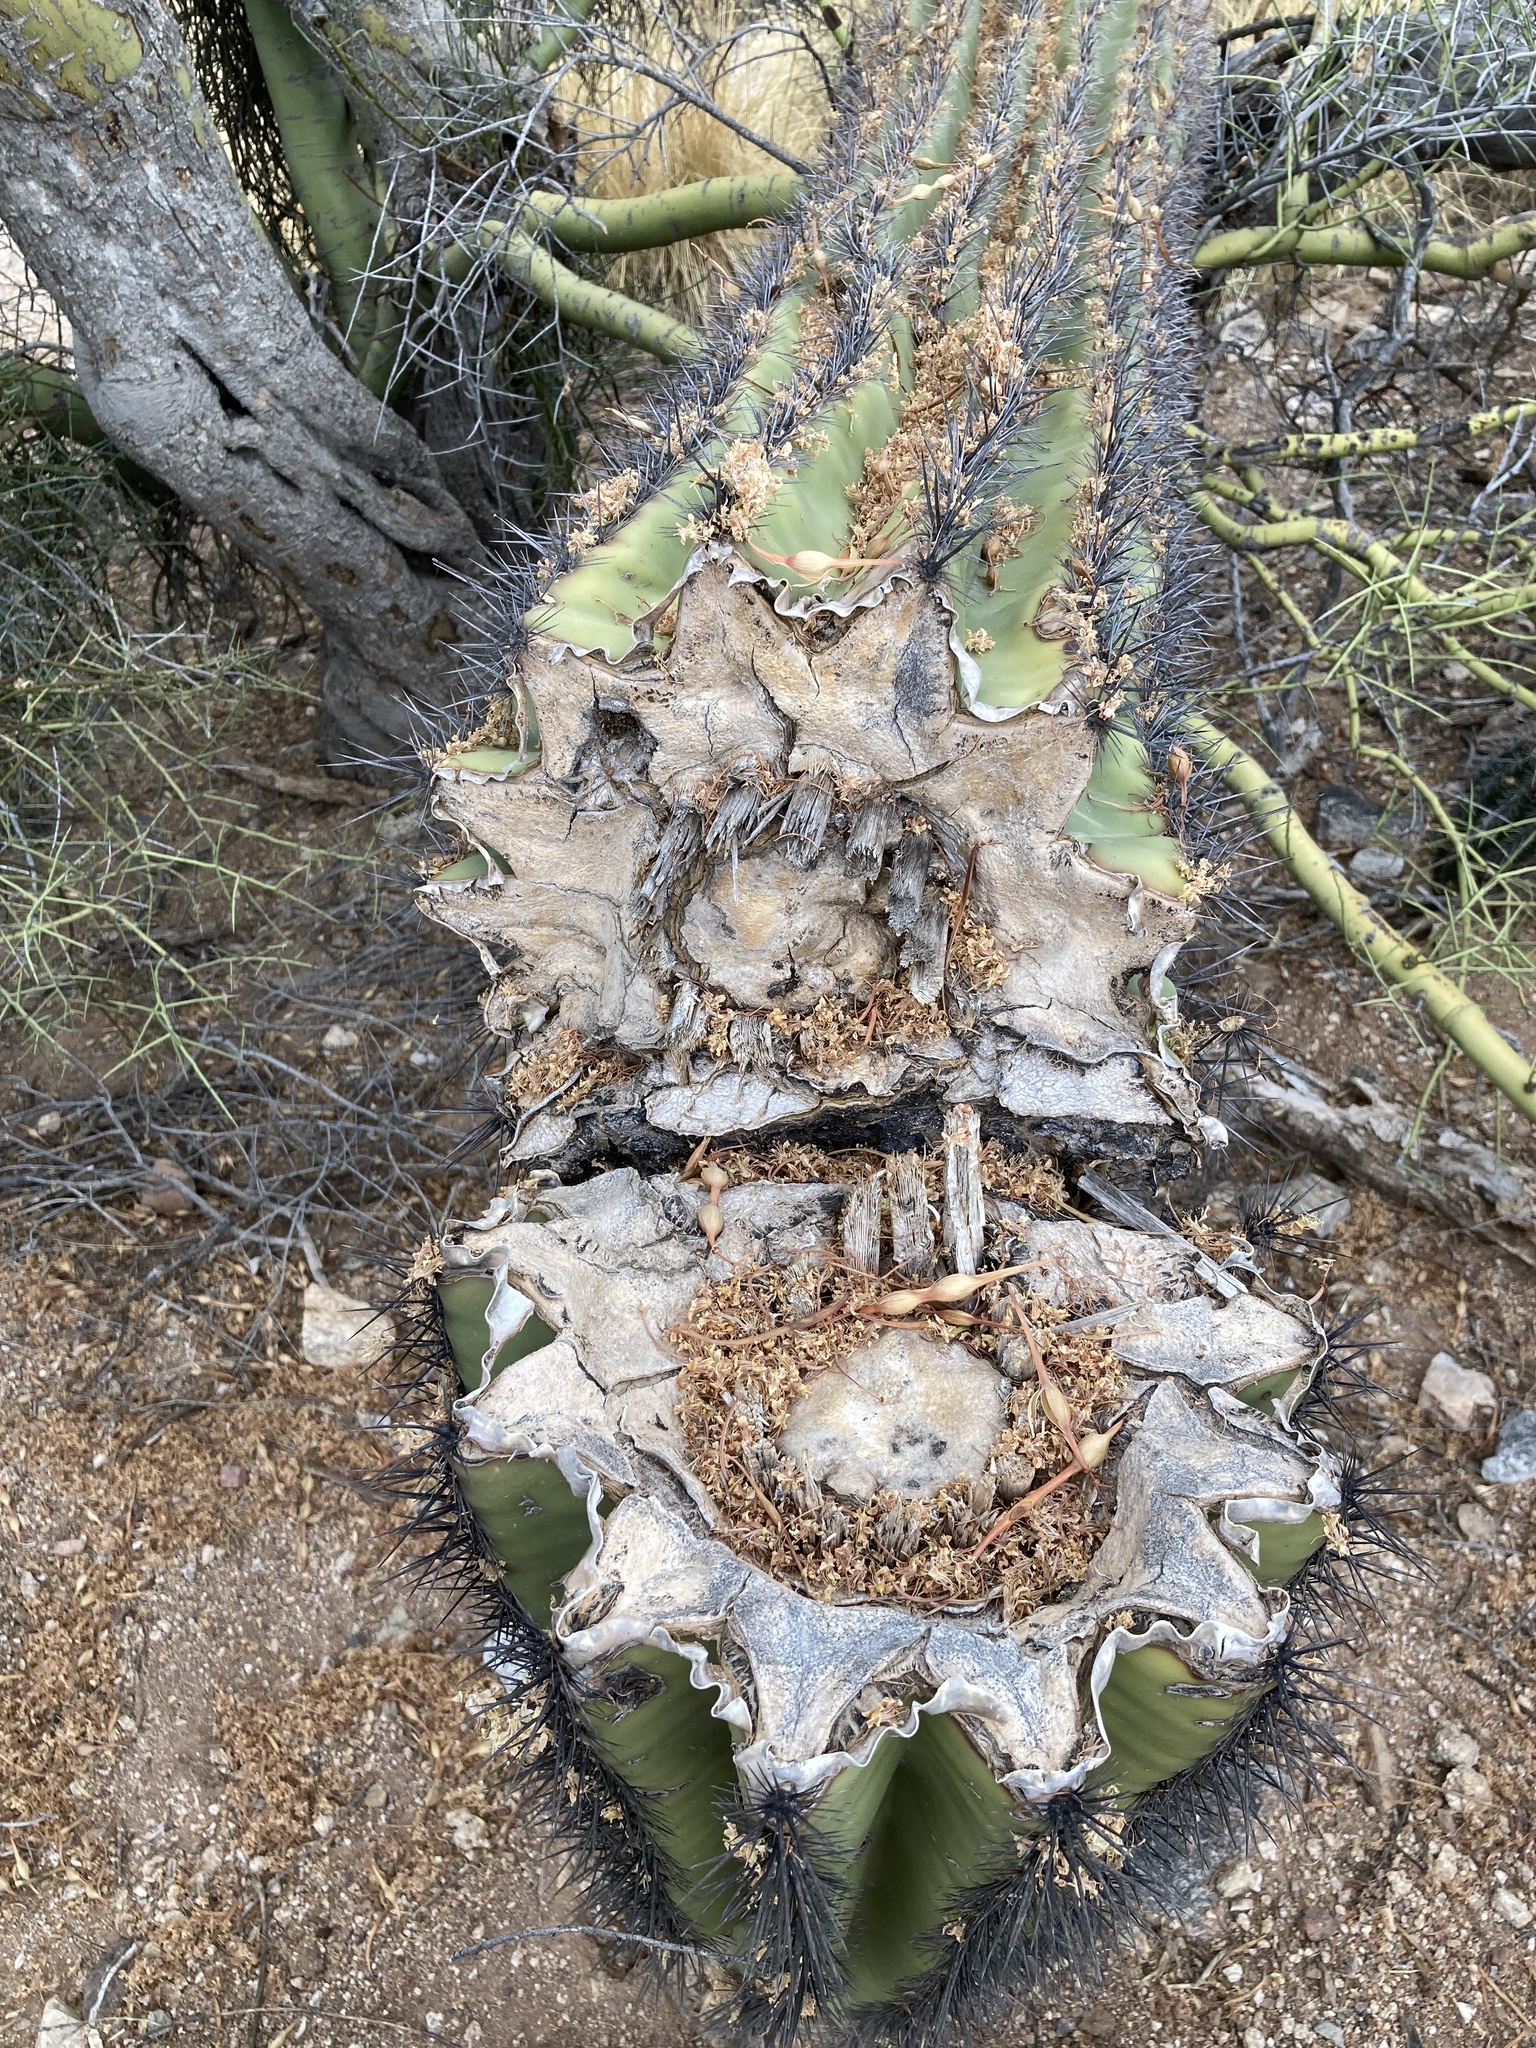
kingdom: Plantae
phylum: Tracheophyta
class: Magnoliopsida
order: Caryophyllales
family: Cactaceae
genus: Carnegiea
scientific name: Carnegiea gigantea
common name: Saguaro
